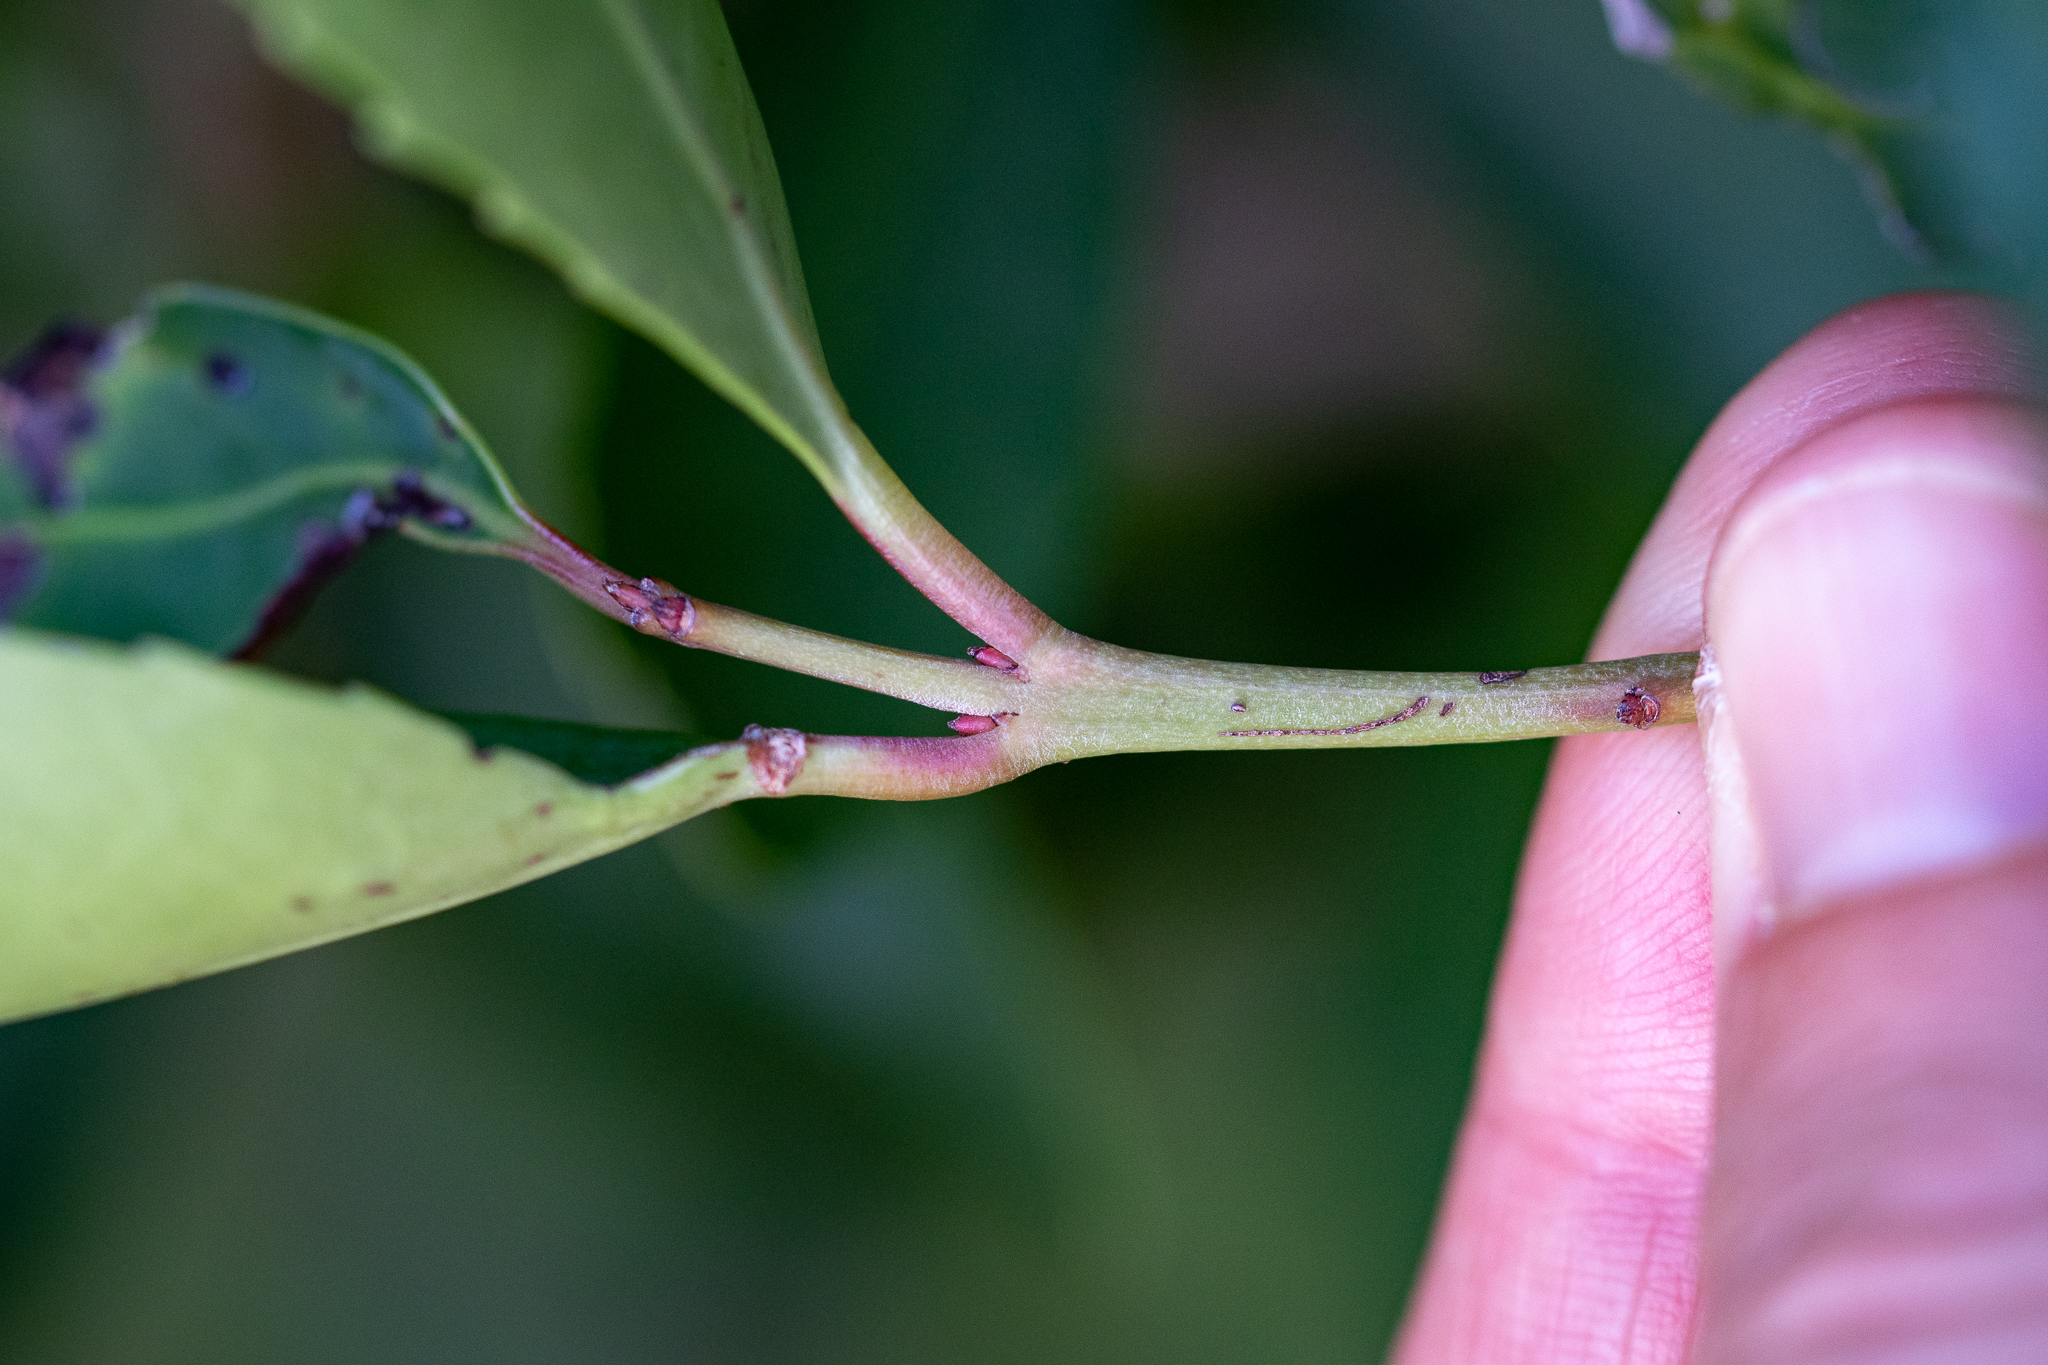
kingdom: Plantae
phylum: Tracheophyta
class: Magnoliopsida
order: Celastrales
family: Celastraceae
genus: Elaeodendron
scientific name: Elaeodendron schinoides
